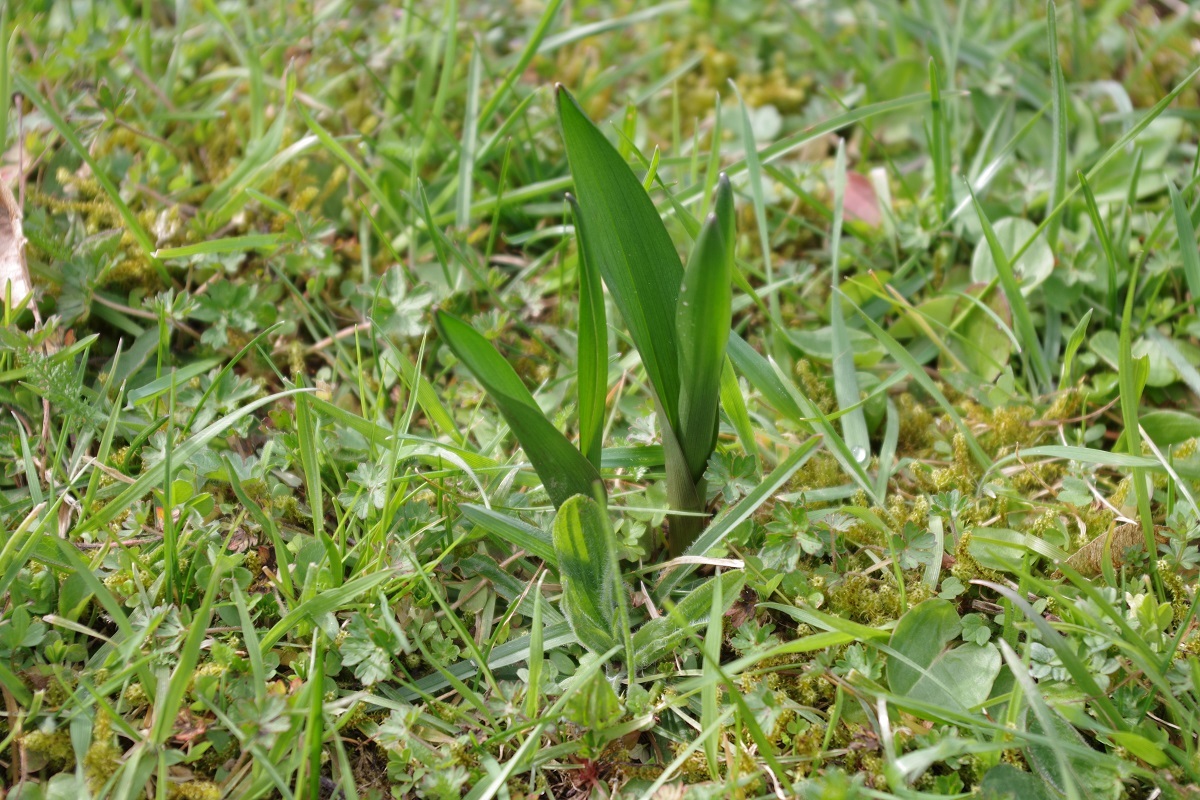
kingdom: Plantae
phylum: Tracheophyta
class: Liliopsida
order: Liliales
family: Colchicaceae
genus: Colchicum
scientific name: Colchicum autumnale
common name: Autumn crocus
